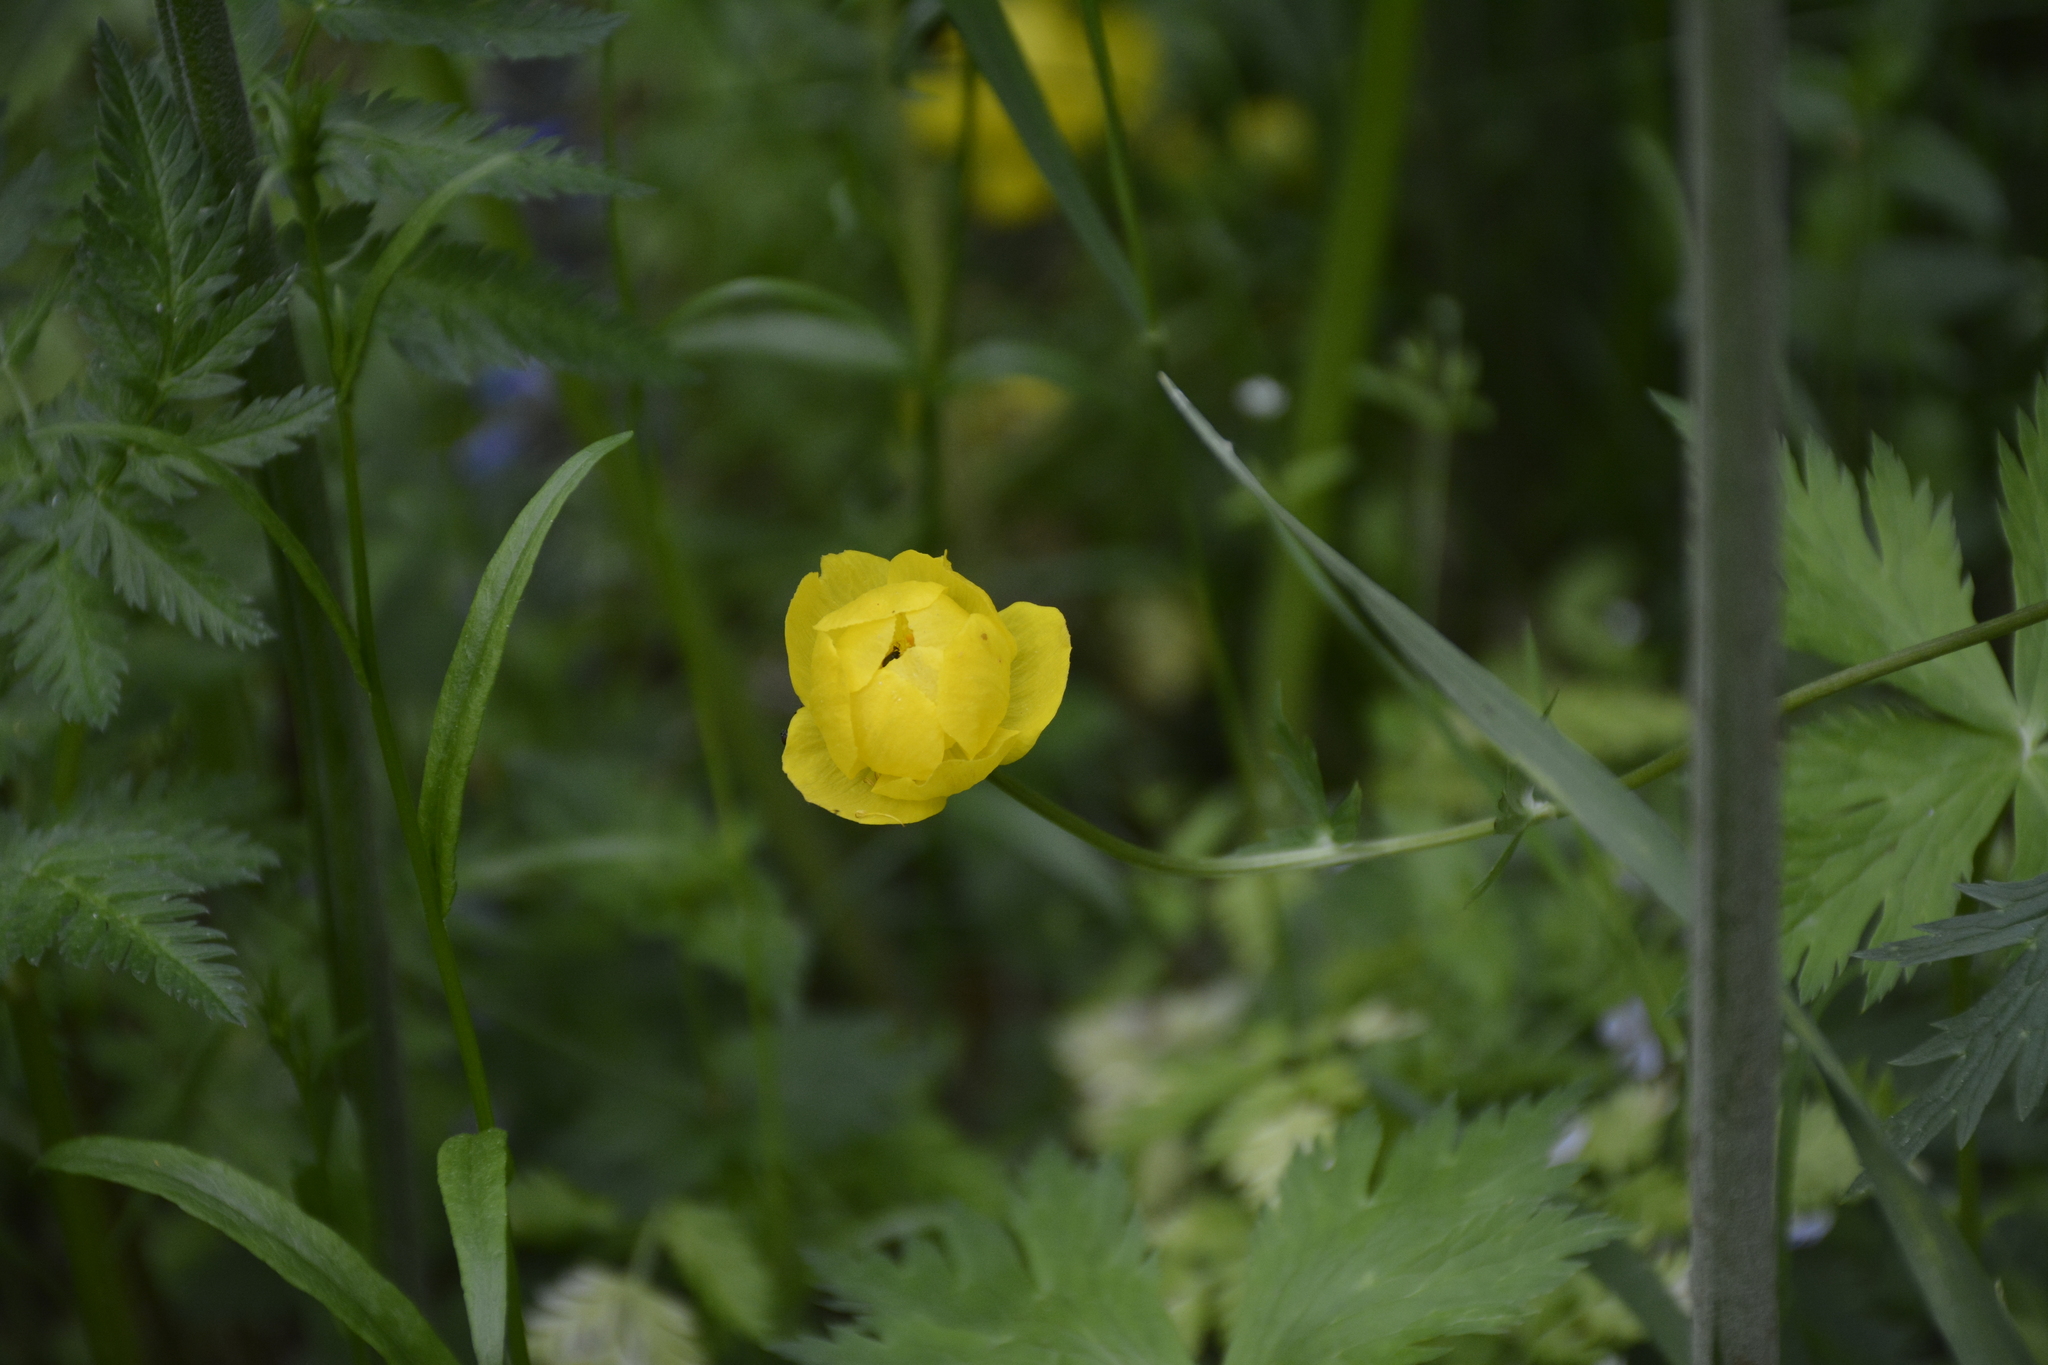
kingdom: Plantae
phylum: Tracheophyta
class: Magnoliopsida
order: Ranunculales
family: Ranunculaceae
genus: Trollius
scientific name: Trollius europaeus
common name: European globeflower
